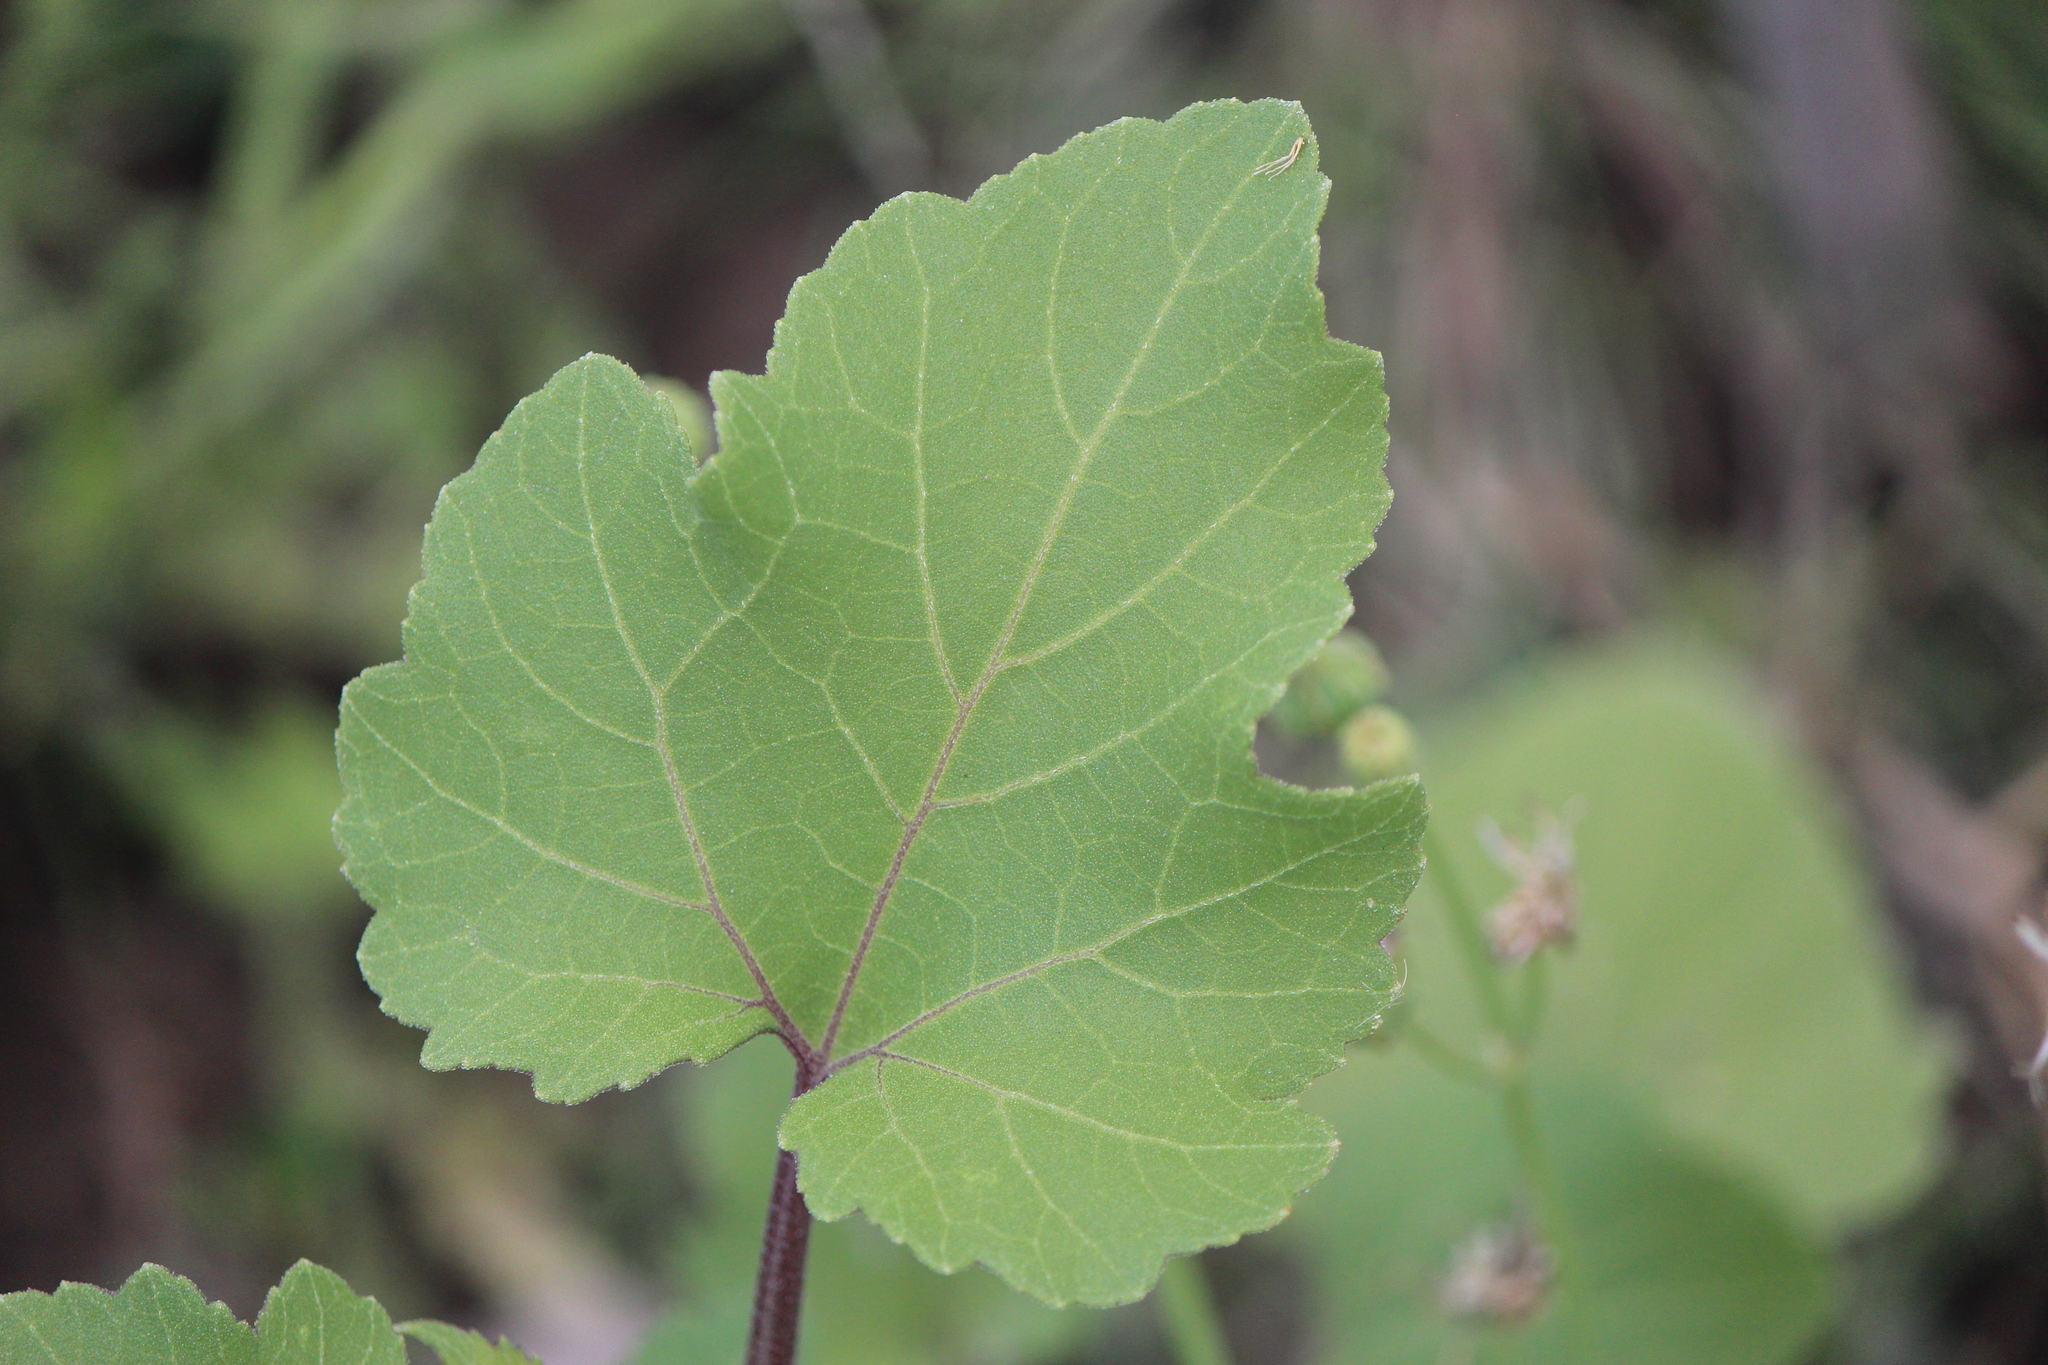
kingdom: Plantae
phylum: Tracheophyta
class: Magnoliopsida
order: Asterales
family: Asteraceae
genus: Xanthium
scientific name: Xanthium strumarium
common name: Rough cocklebur
